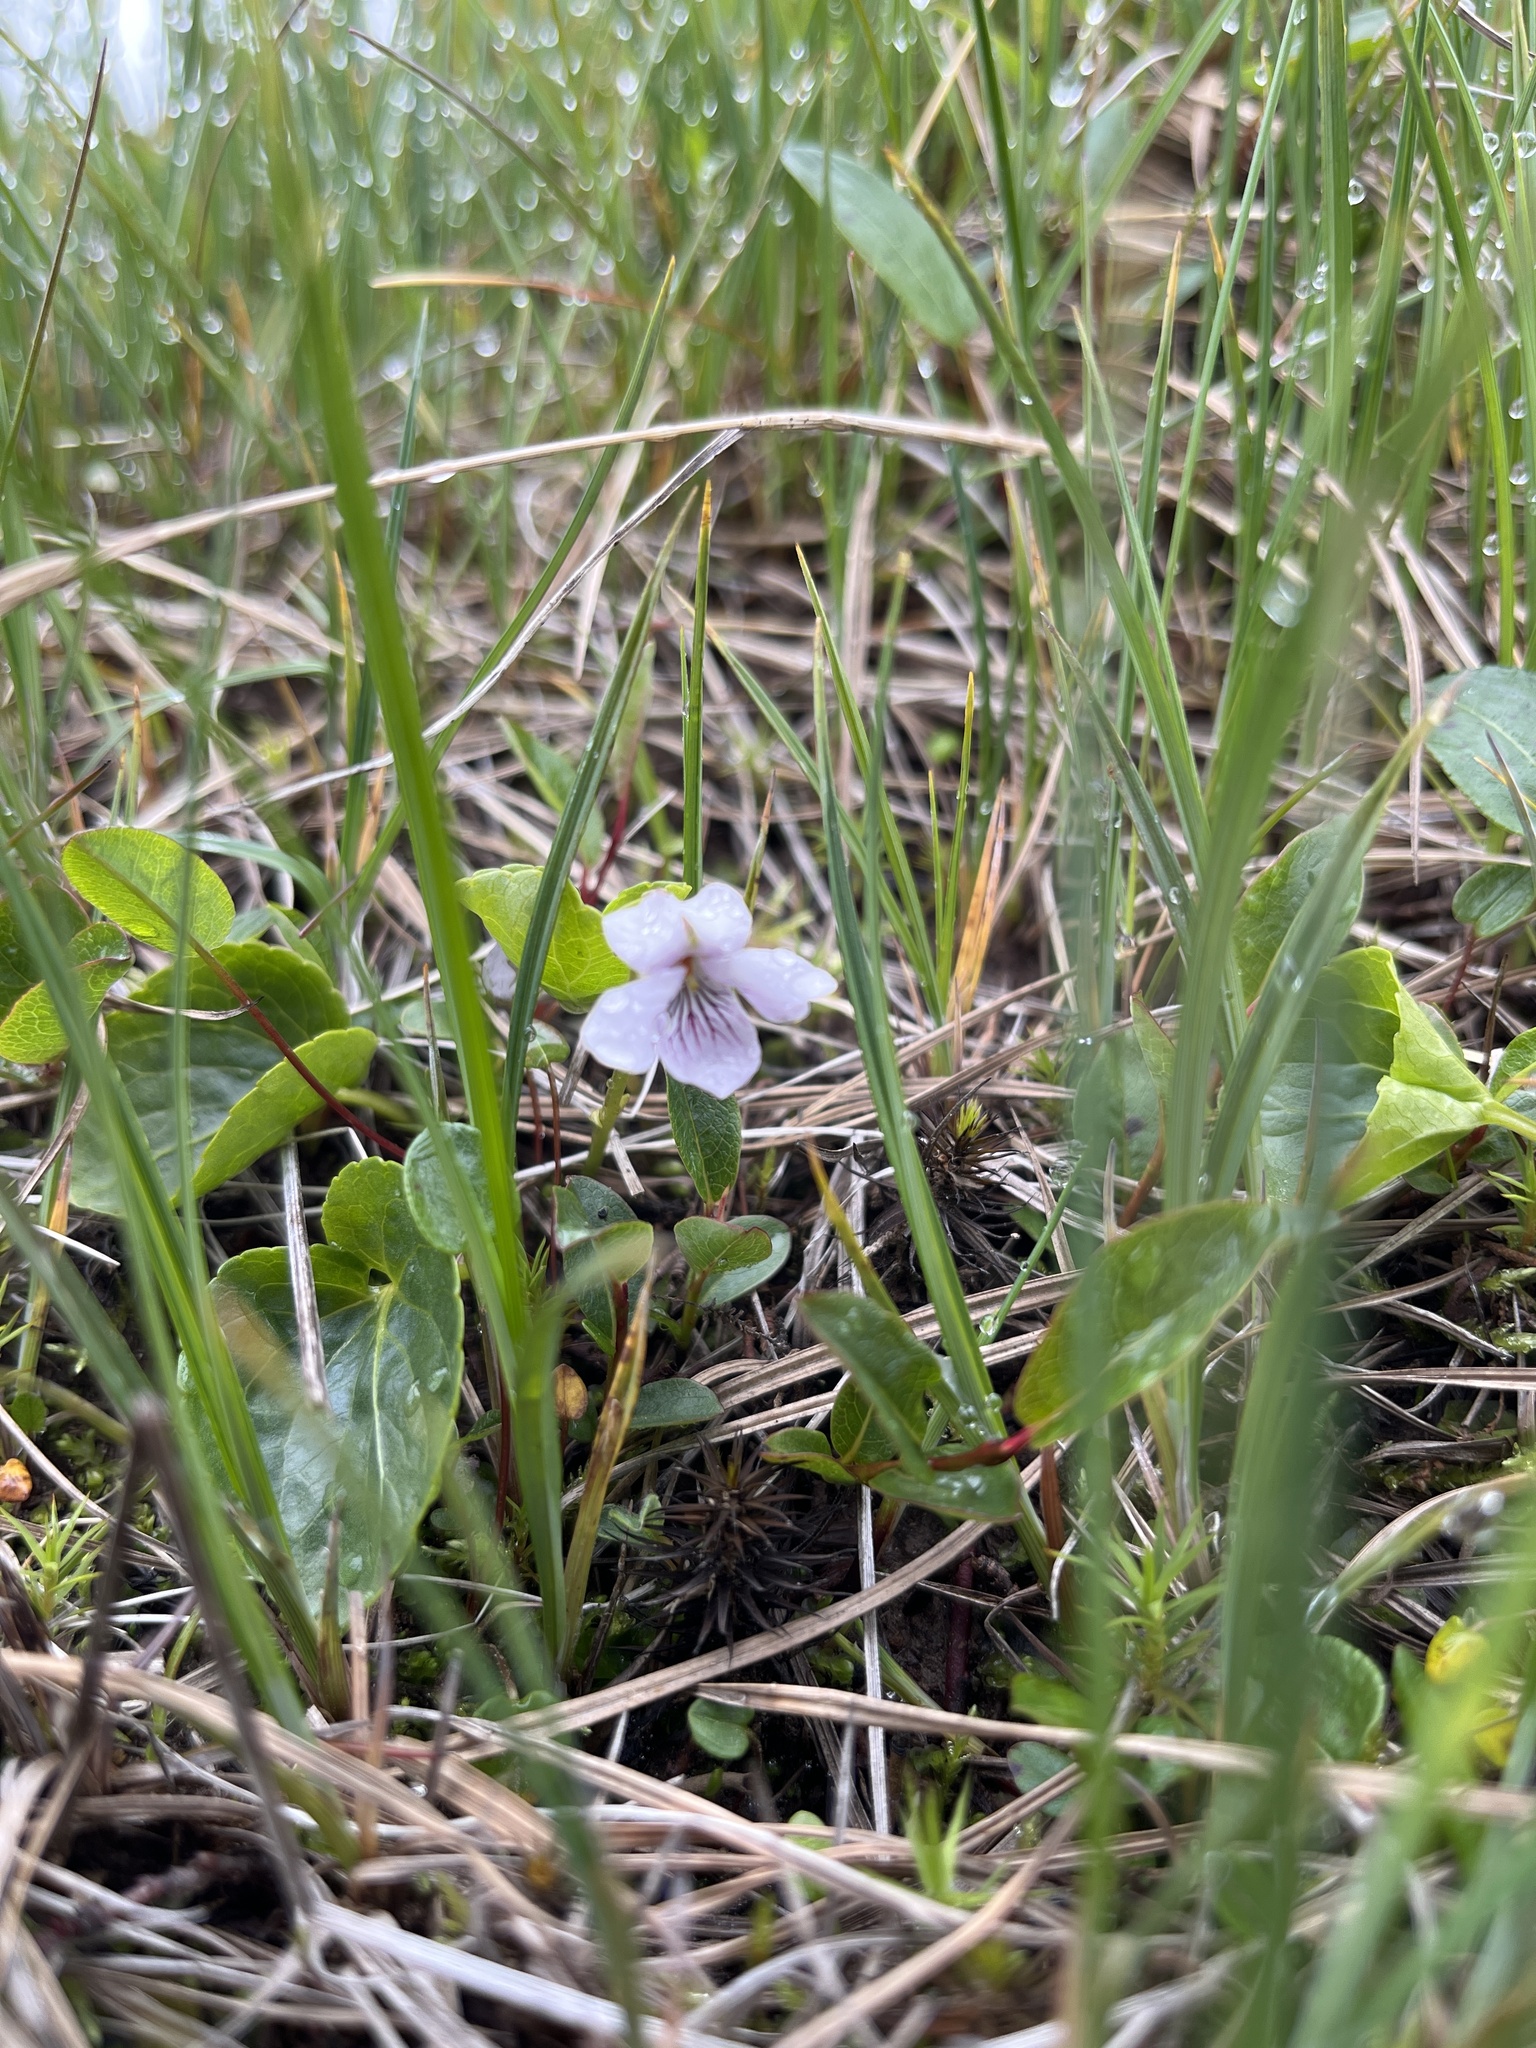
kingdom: Plantae
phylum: Tracheophyta
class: Magnoliopsida
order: Malpighiales
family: Violaceae
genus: Viola
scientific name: Viola palustris
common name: Marsh violet
